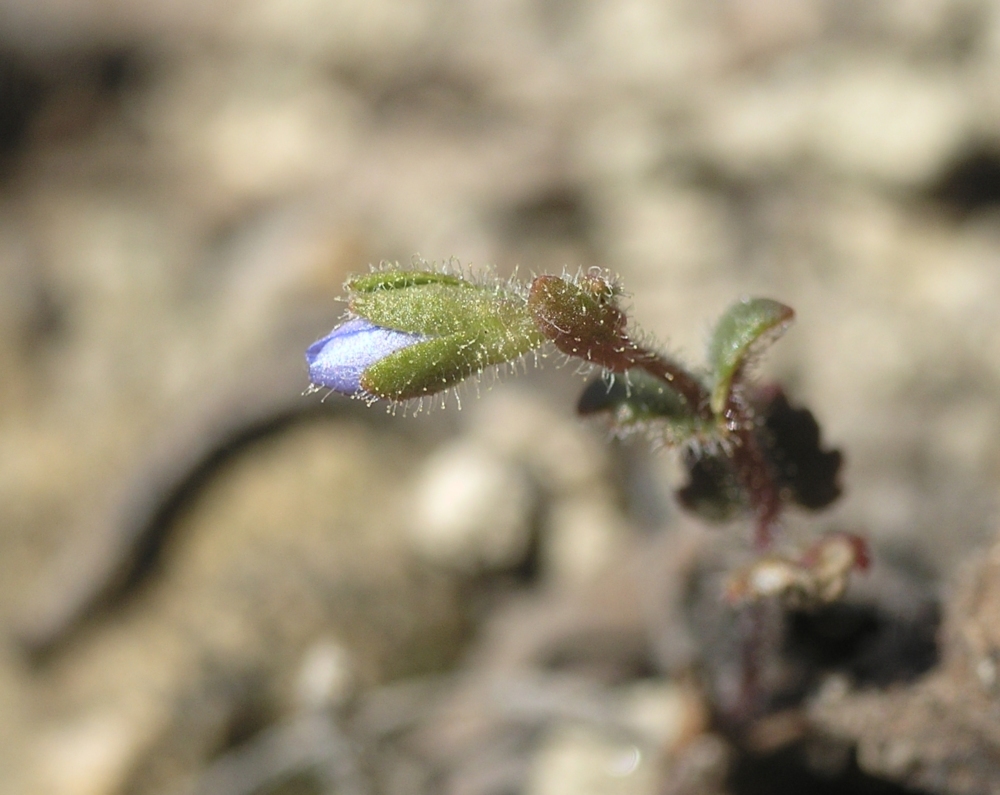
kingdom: Plantae
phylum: Tracheophyta
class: Magnoliopsida
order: Lamiales
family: Plantaginaceae
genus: Veronica
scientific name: Veronica praecox
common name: Breckland speedwell
